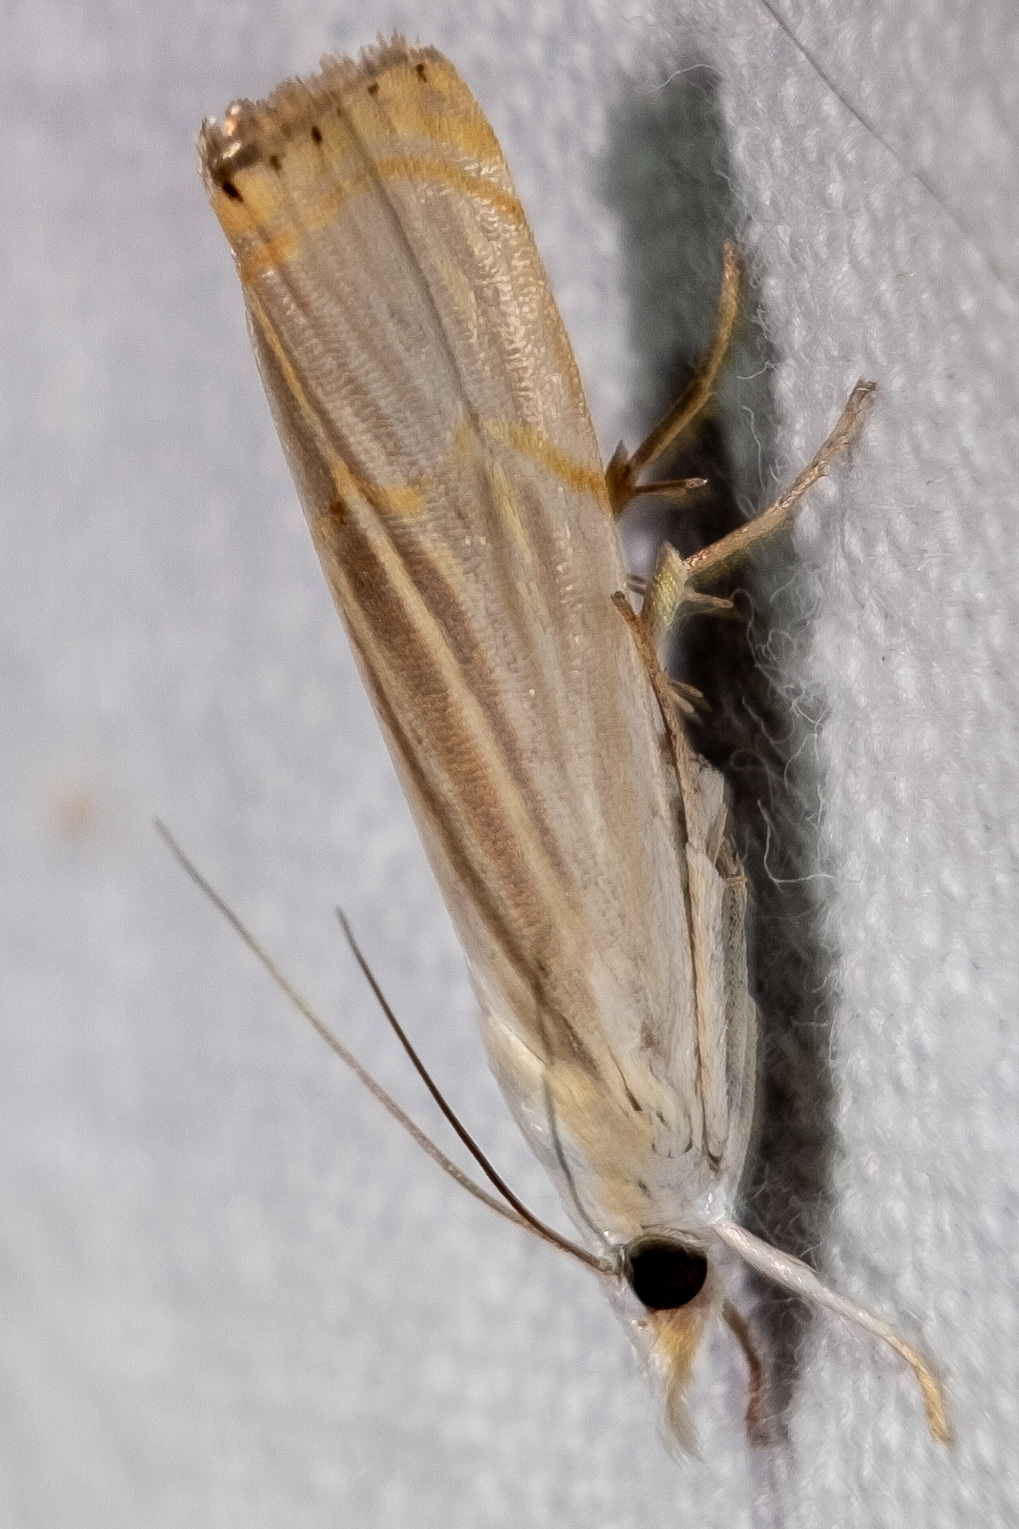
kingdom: Animalia
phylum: Arthropoda
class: Insecta
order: Lepidoptera
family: Crambidae
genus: Parapediasia
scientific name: Parapediasia decorellus
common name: Graceful grass-veneer
